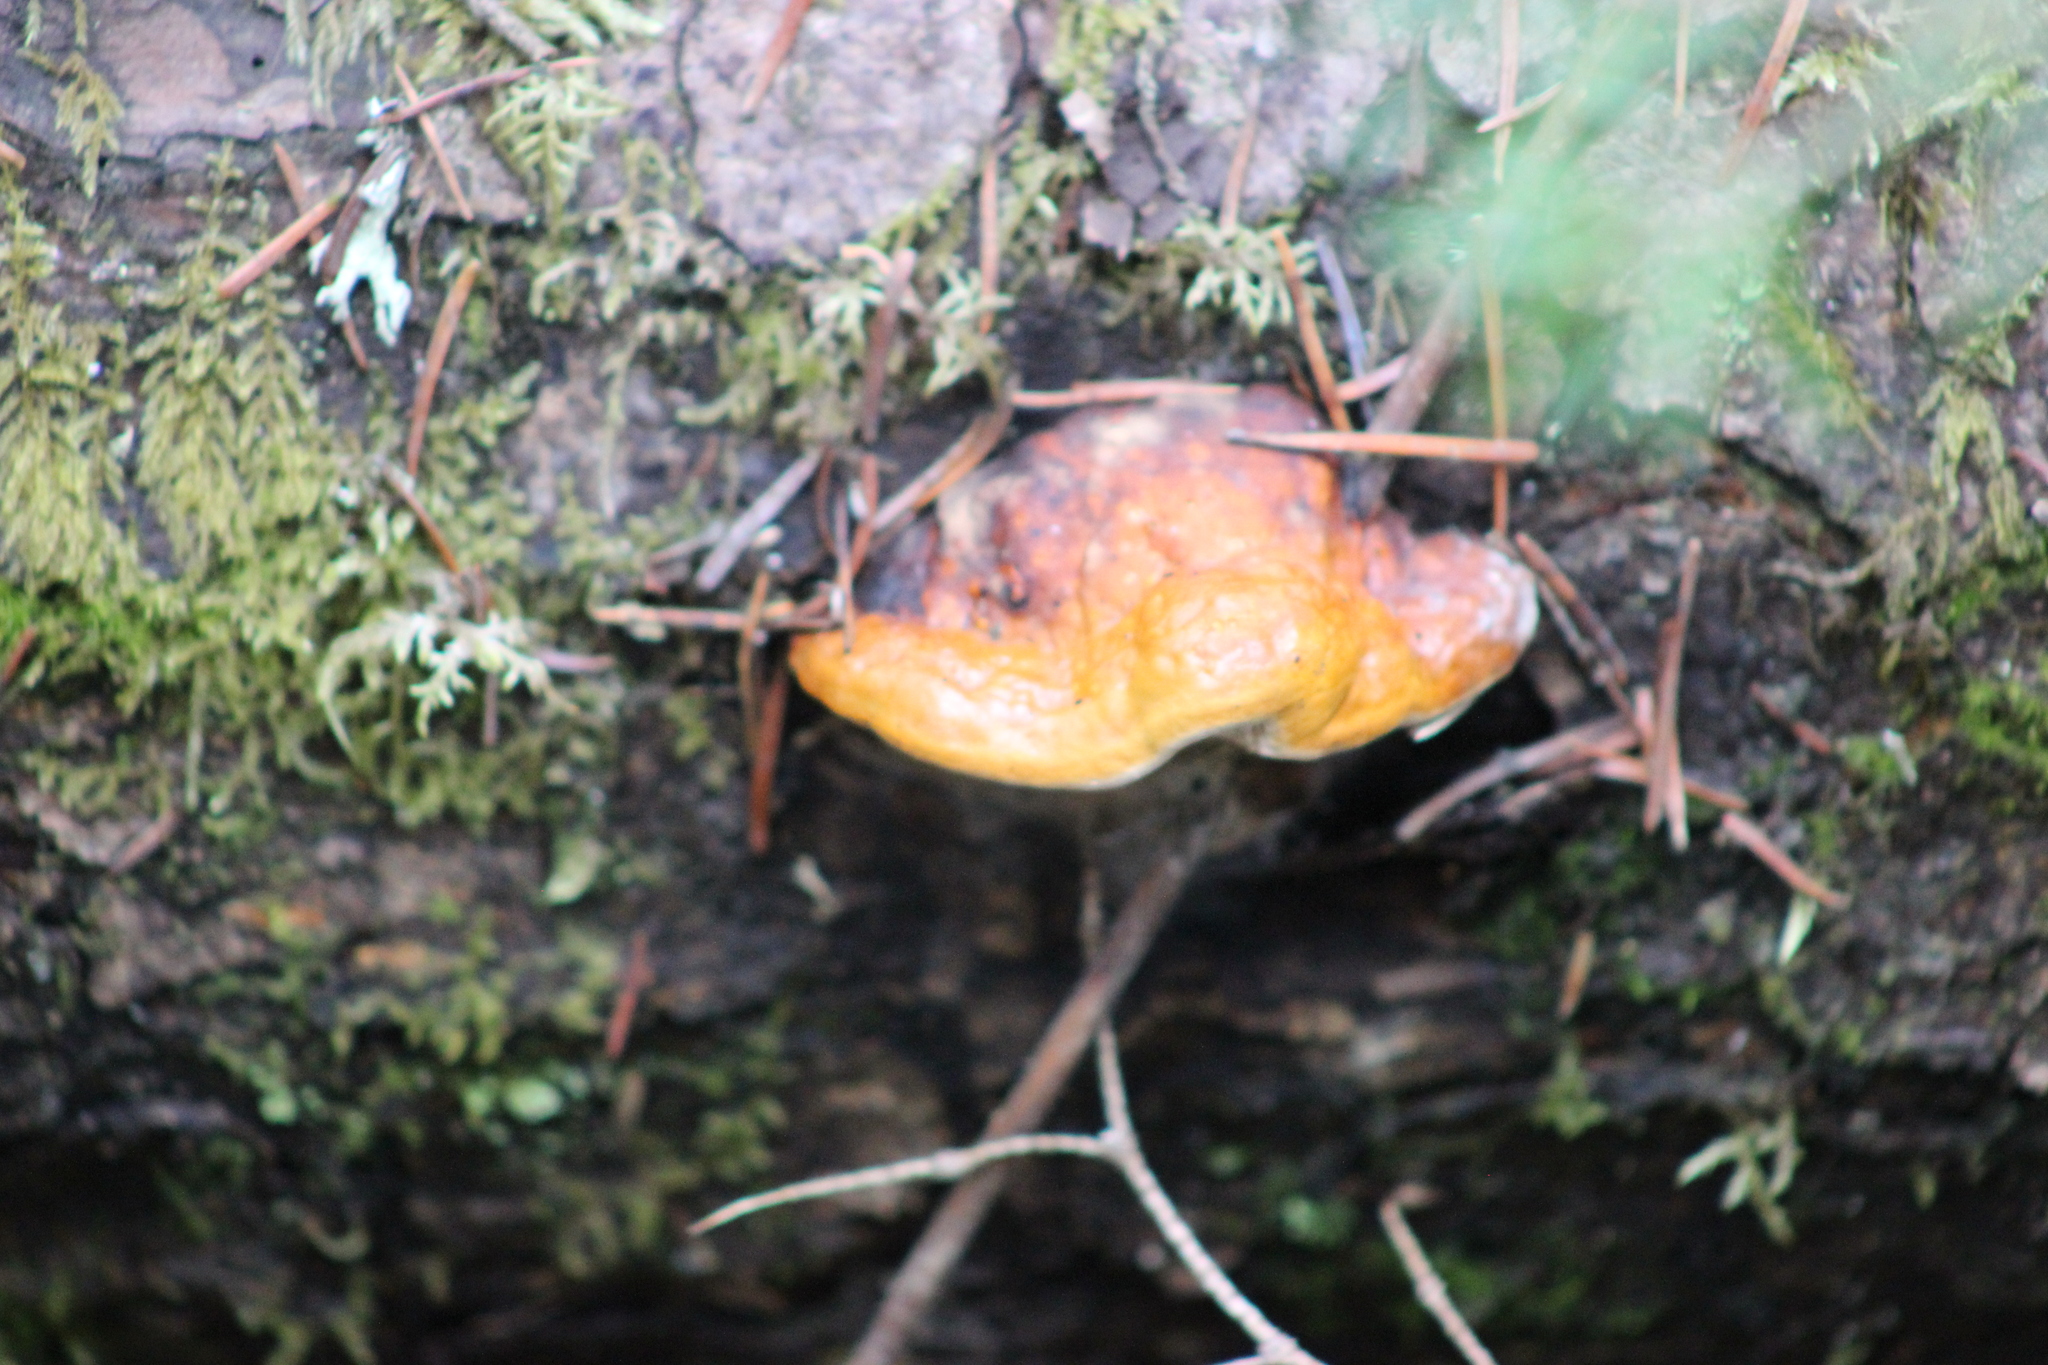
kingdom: Fungi
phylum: Basidiomycota
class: Agaricomycetes
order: Polyporales
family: Fomitopsidaceae
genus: Fomitopsis
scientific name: Fomitopsis pinicola
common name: Red-belted bracket
